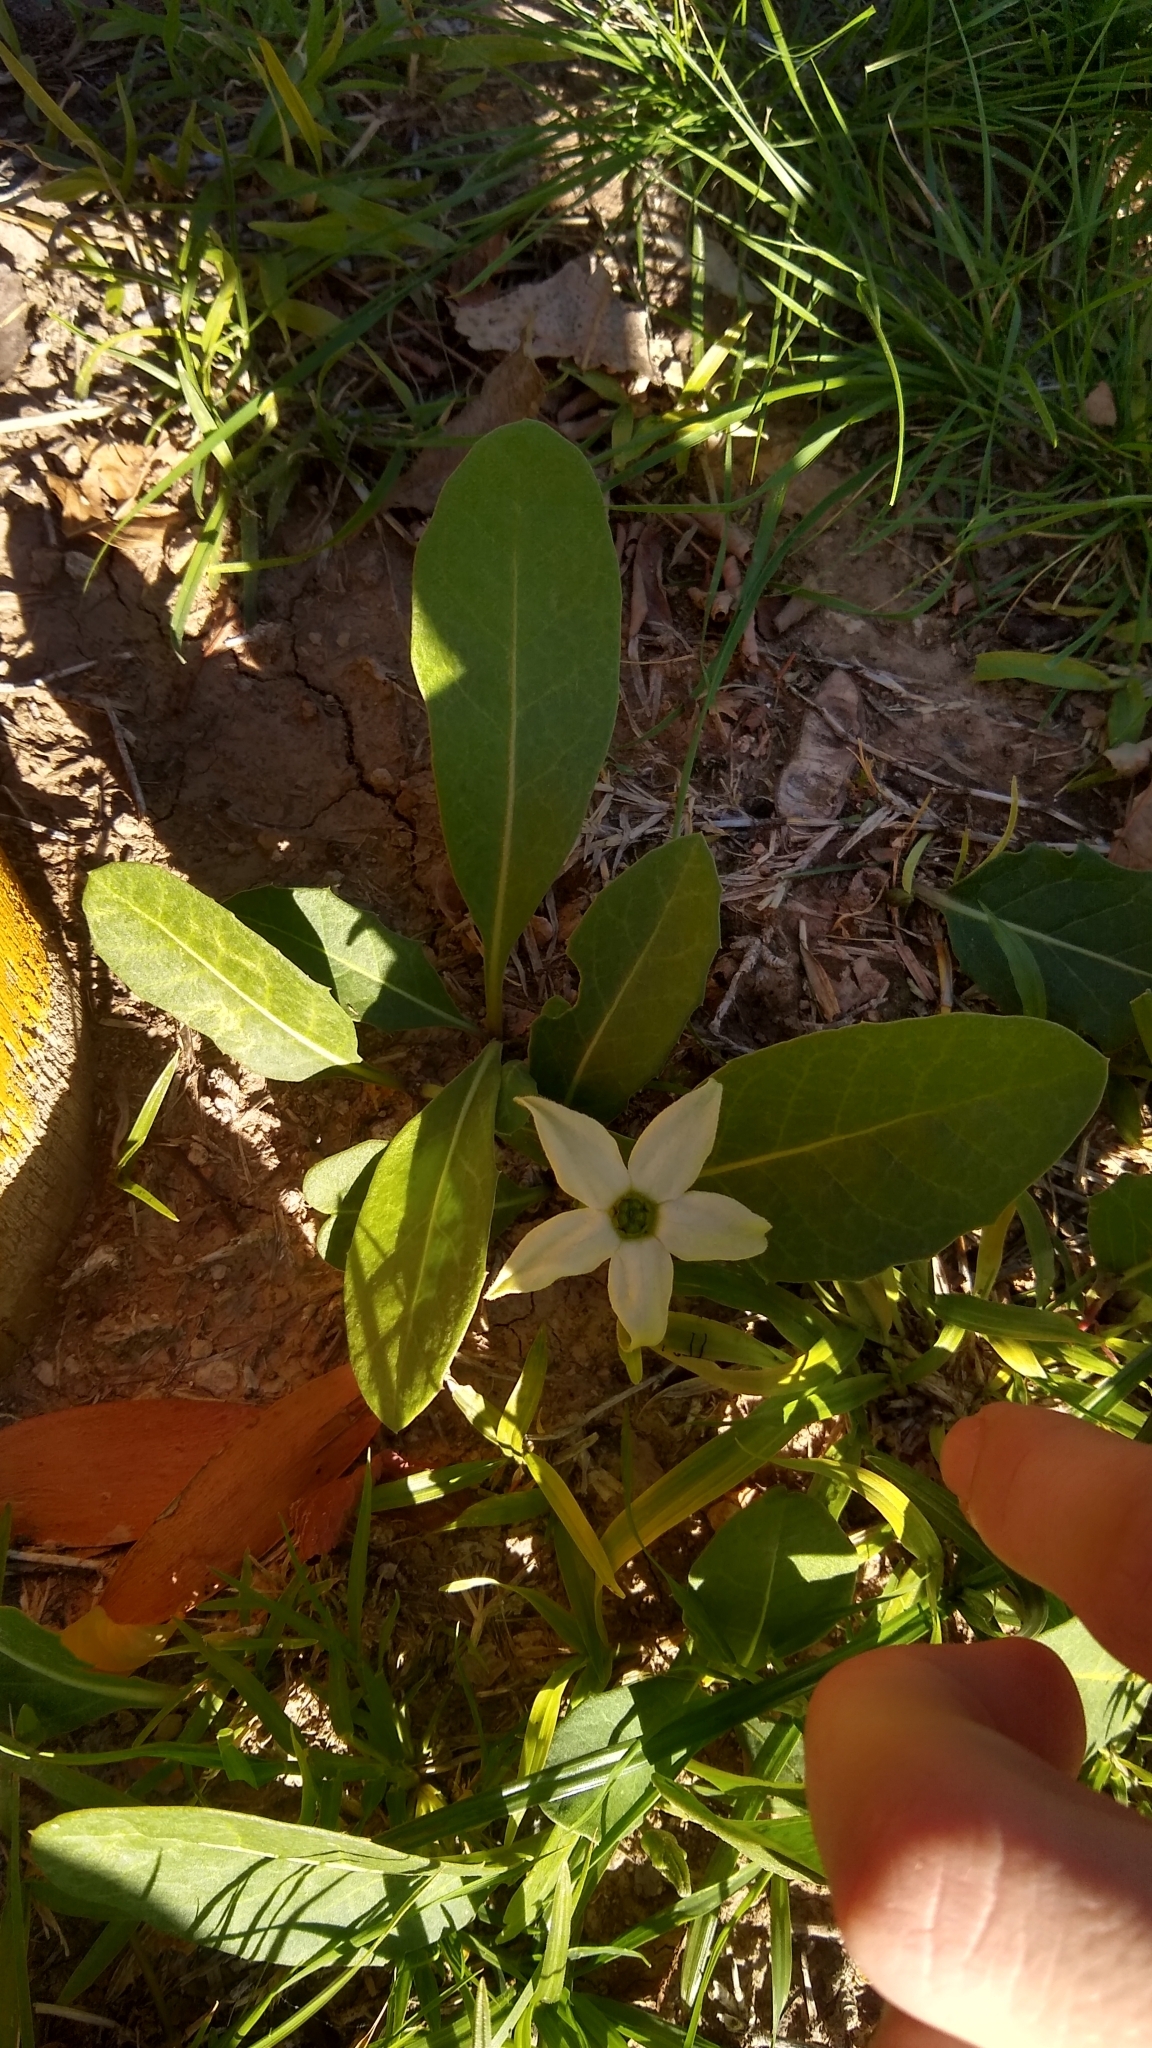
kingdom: Plantae
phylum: Tracheophyta
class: Magnoliopsida
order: Solanales
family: Solanaceae
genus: Jaborosa
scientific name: Jaborosa integrifolia
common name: Springblossom
